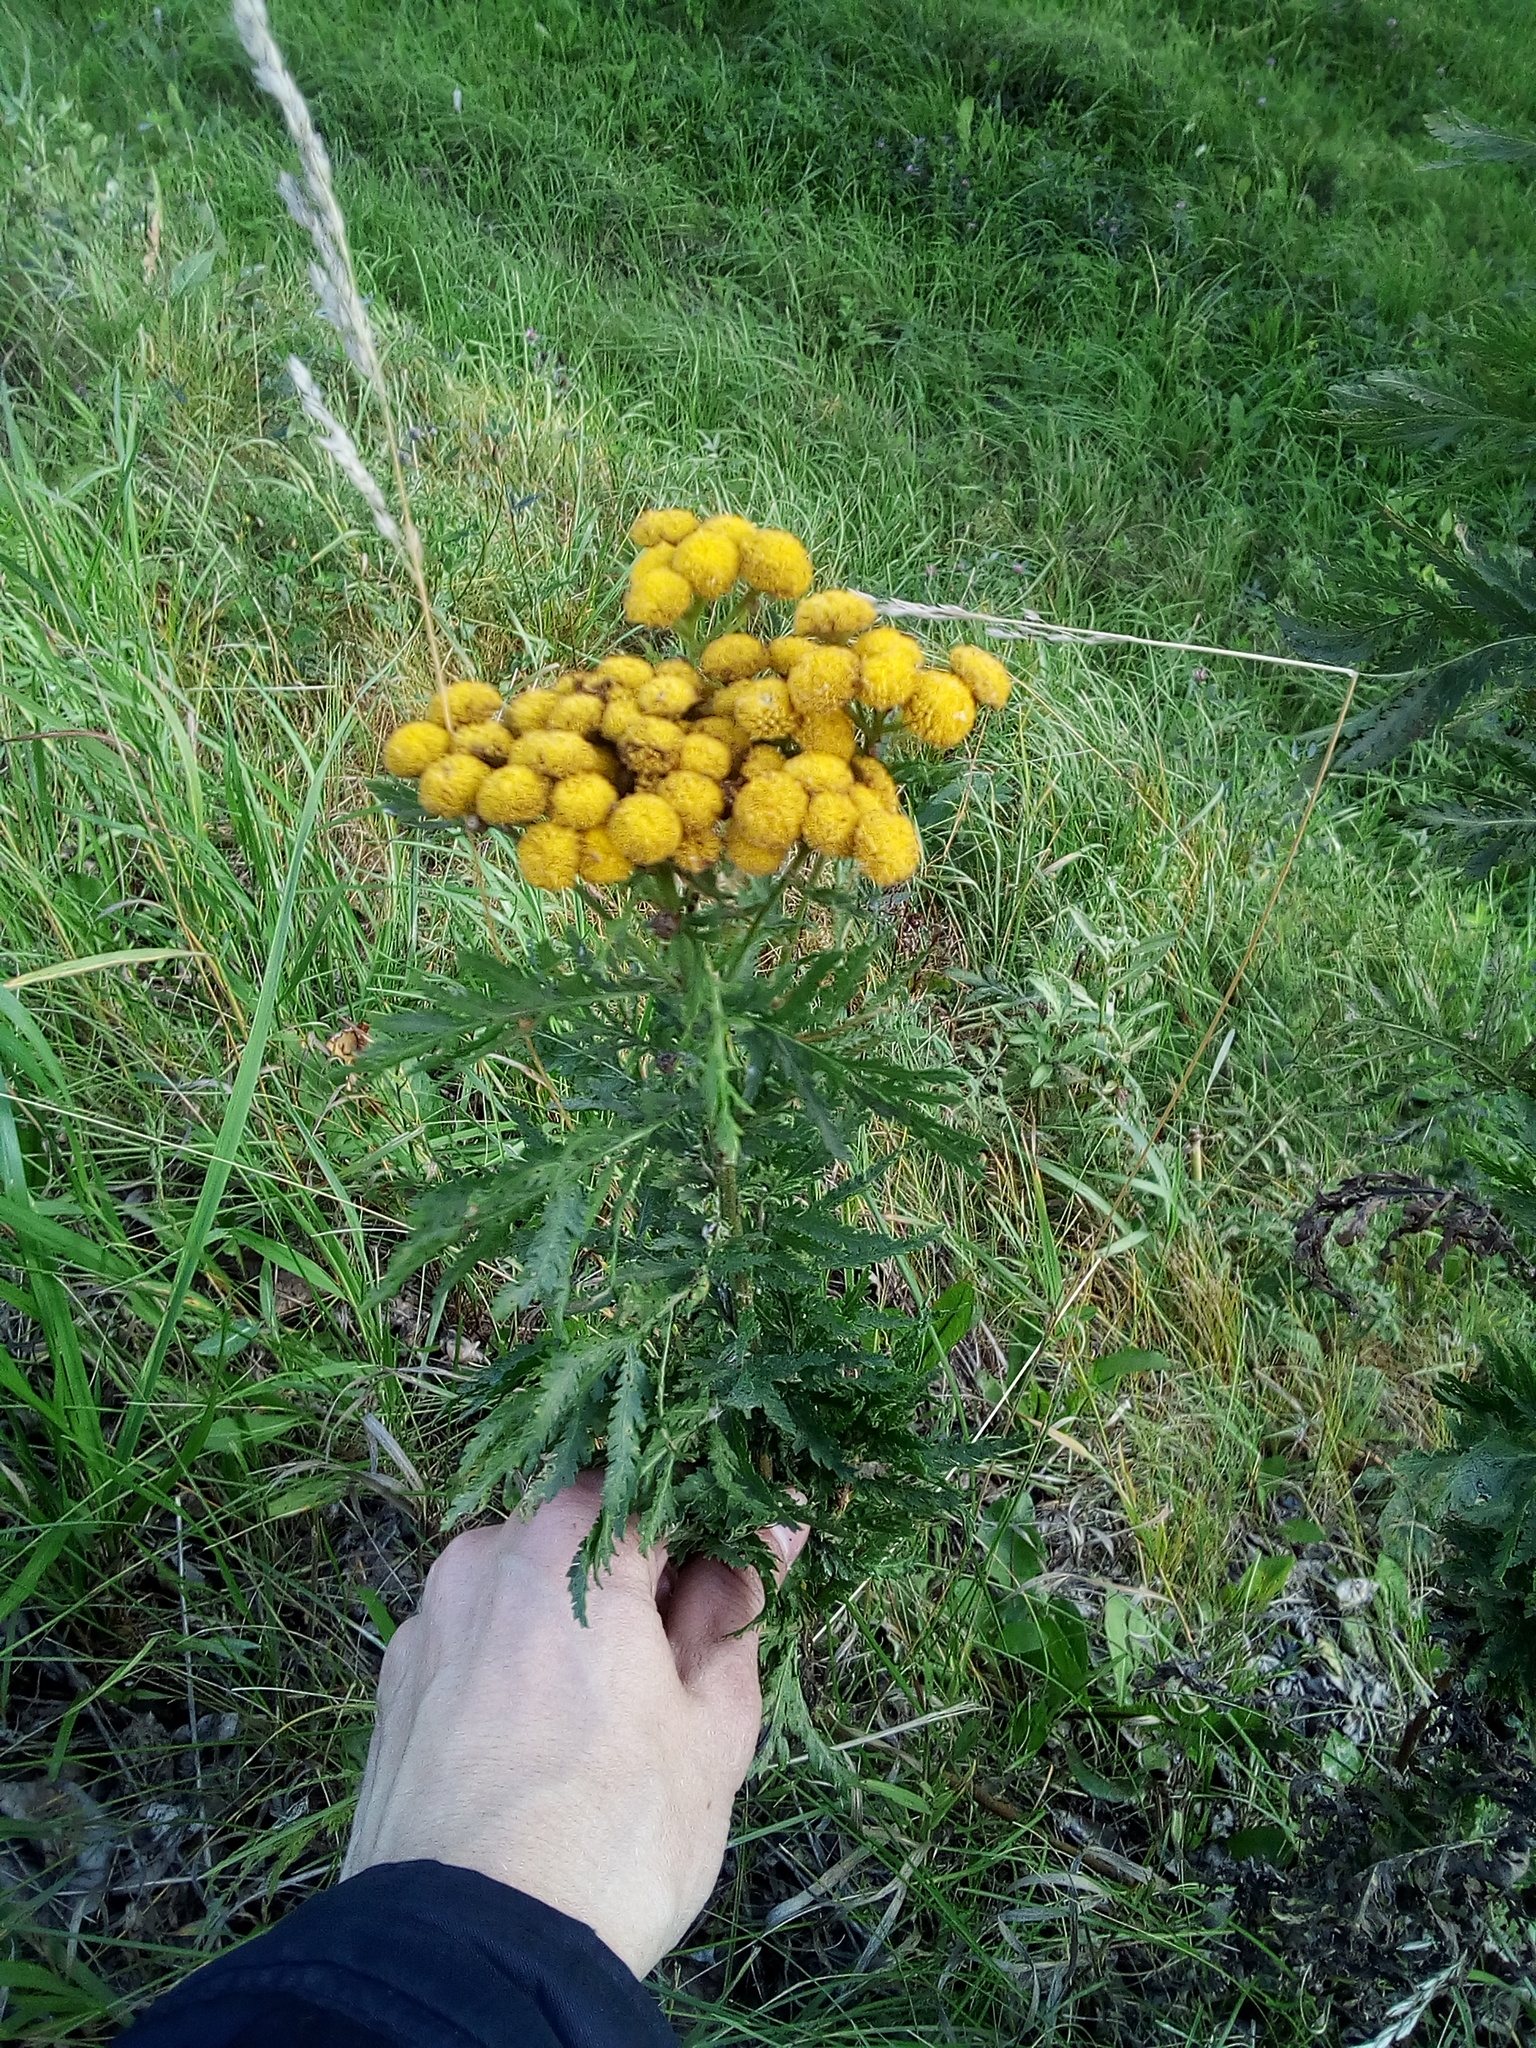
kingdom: Plantae
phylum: Tracheophyta
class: Magnoliopsida
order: Asterales
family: Asteraceae
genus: Tanacetum
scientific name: Tanacetum vulgare
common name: Common tansy
